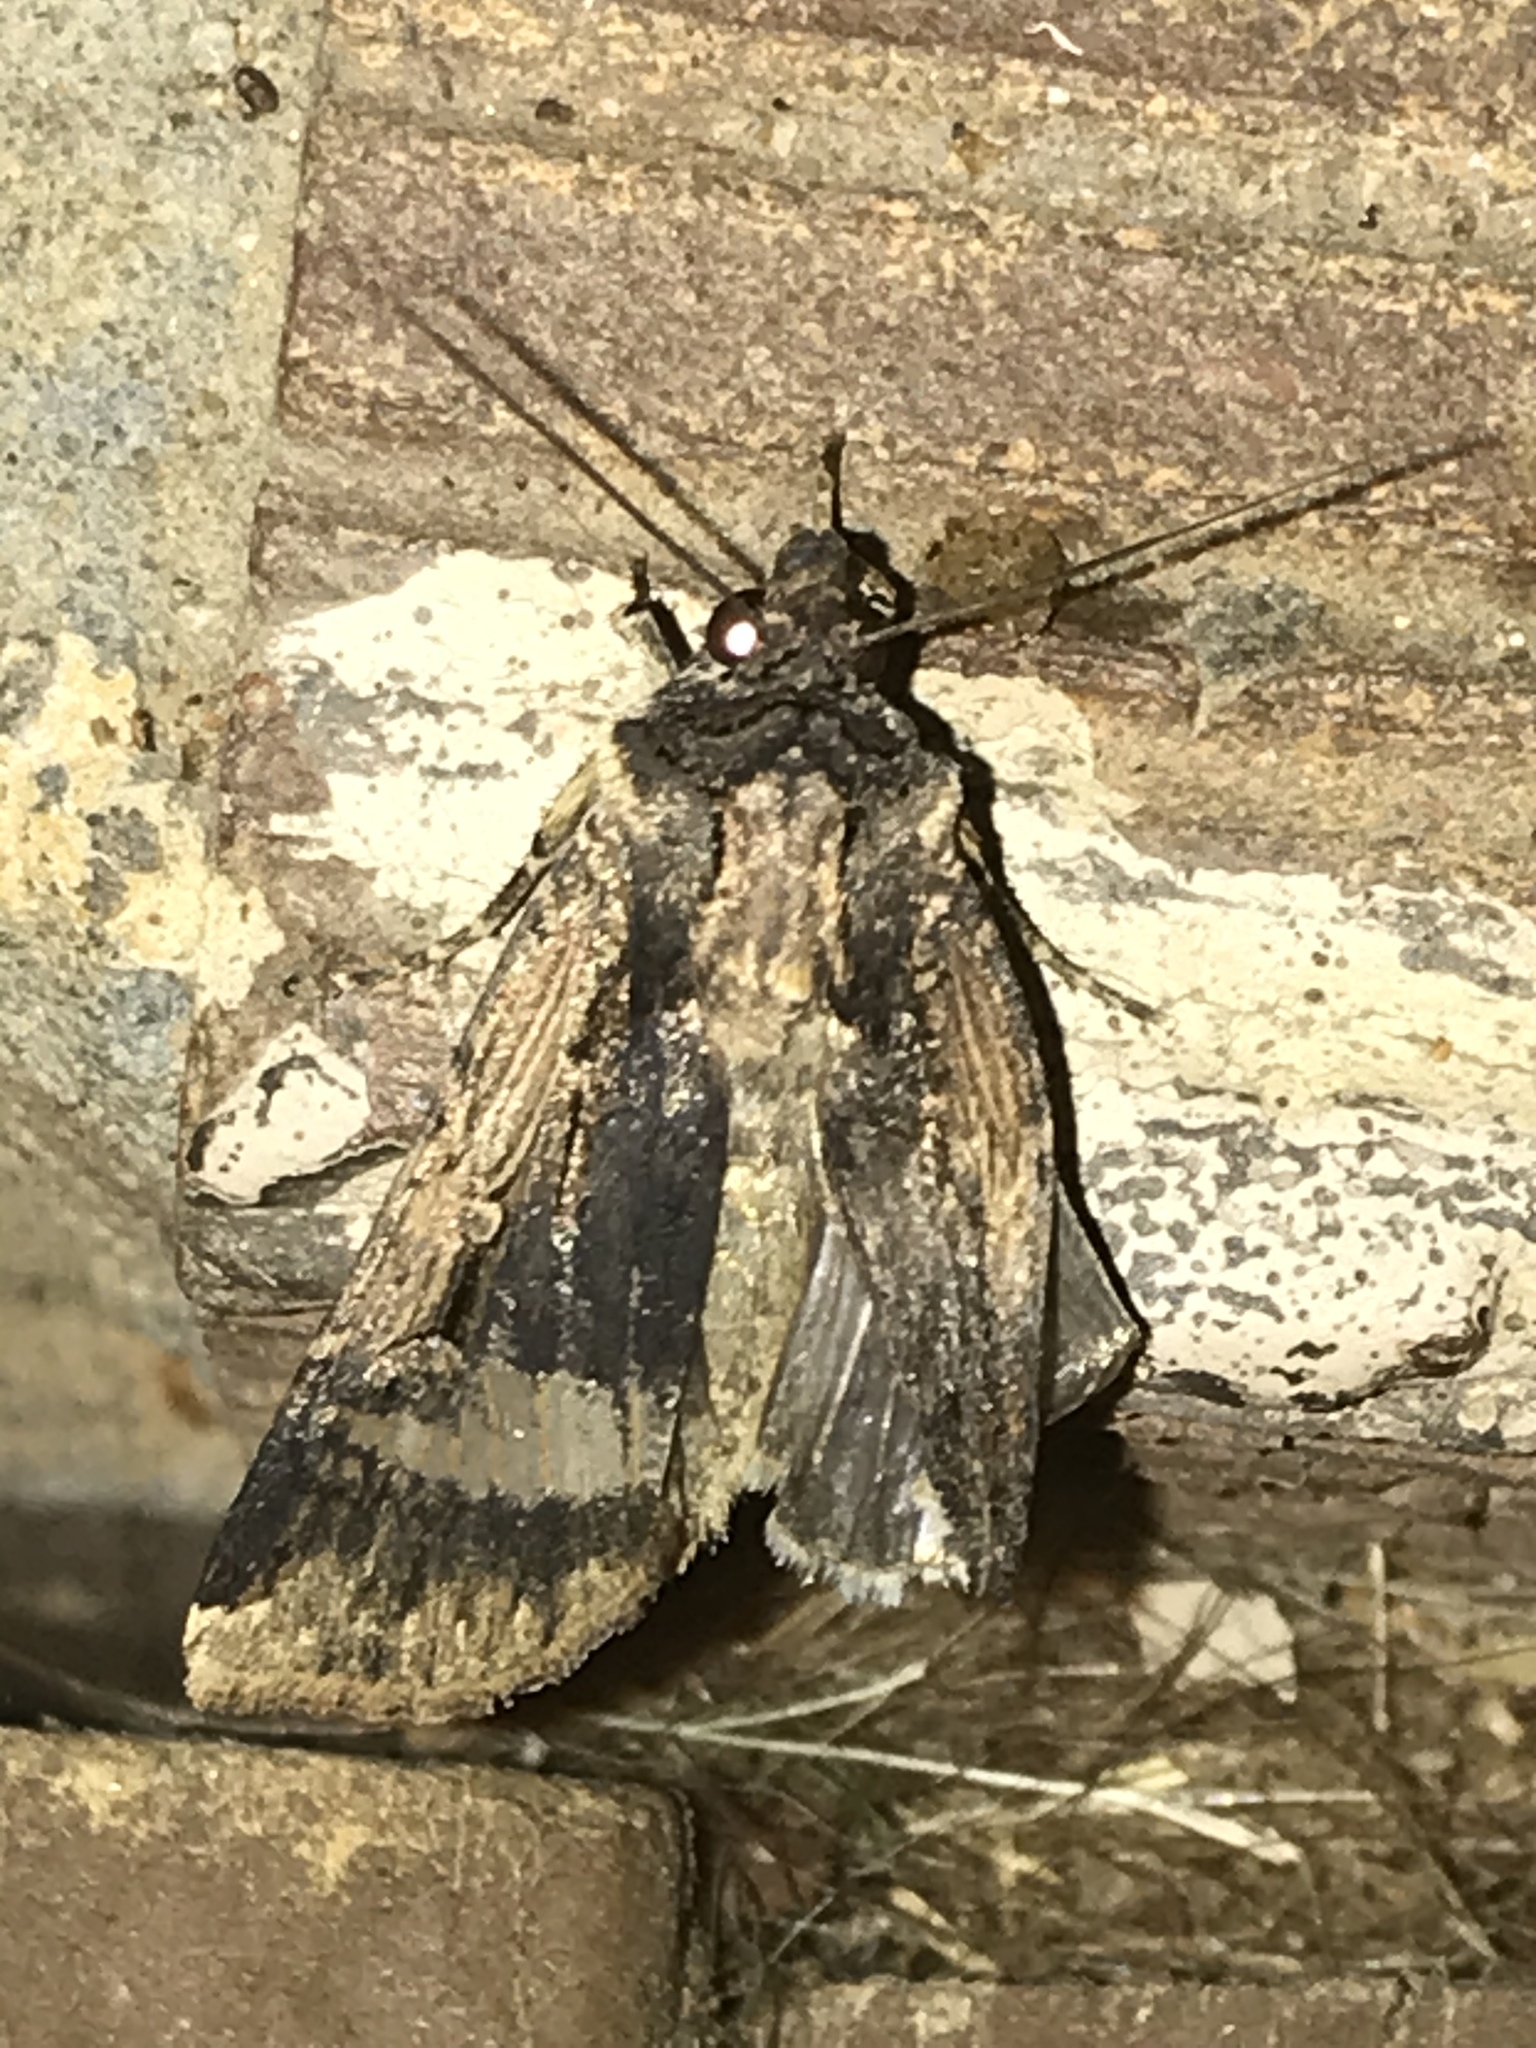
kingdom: Animalia
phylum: Arthropoda
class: Insecta
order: Lepidoptera
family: Noctuidae
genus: Feltia
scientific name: Feltia subterranea
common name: Granulate cutworm
